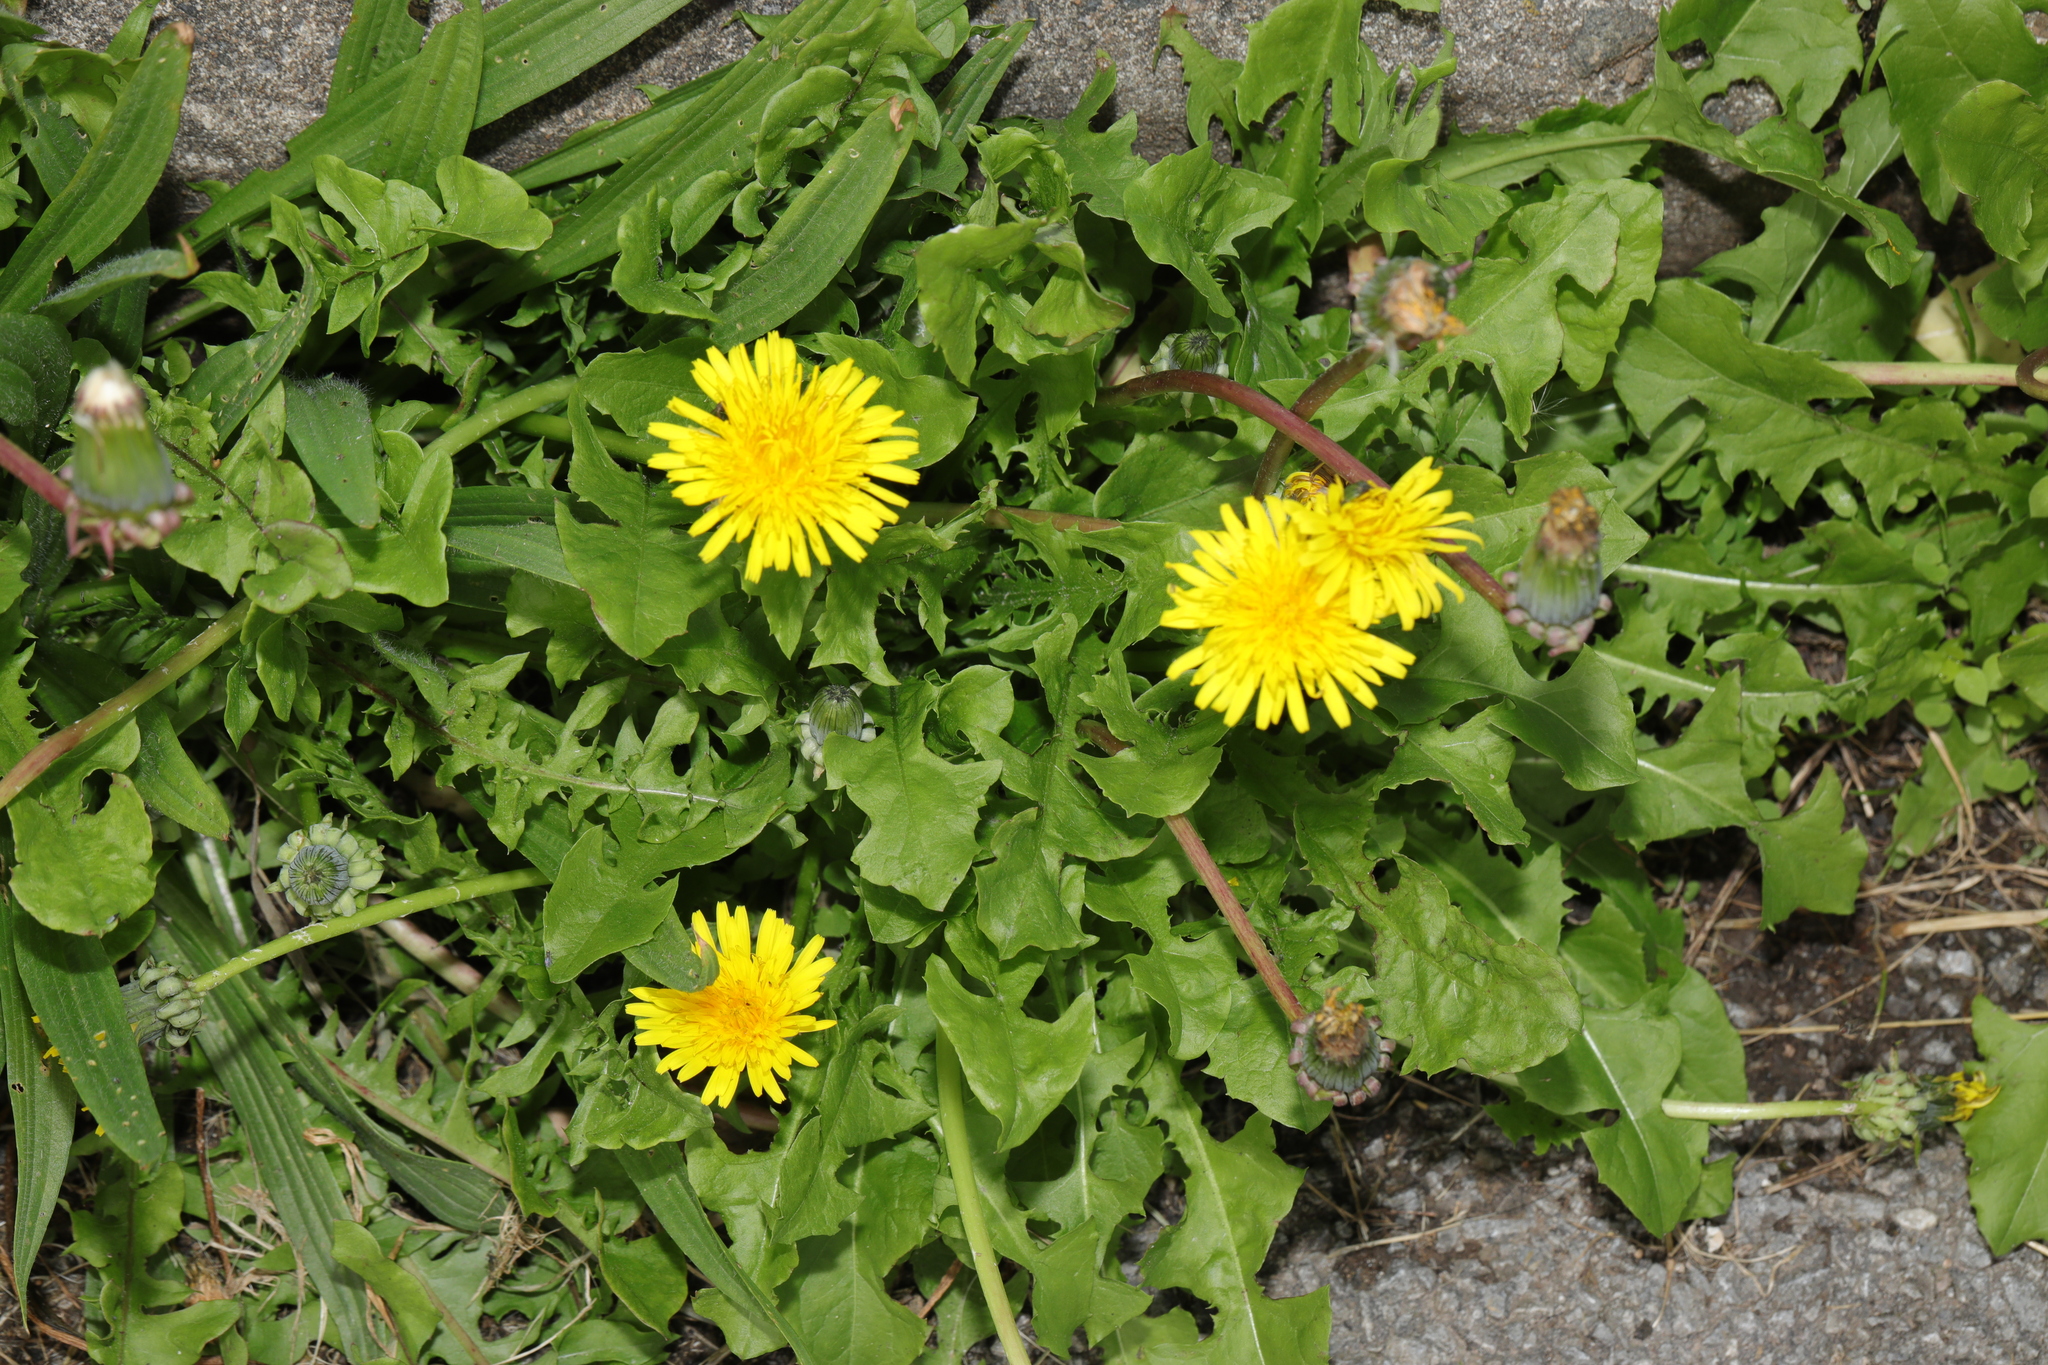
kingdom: Plantae
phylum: Tracheophyta
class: Magnoliopsida
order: Asterales
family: Asteraceae
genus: Taraxacum
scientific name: Taraxacum officinale
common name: Common dandelion
